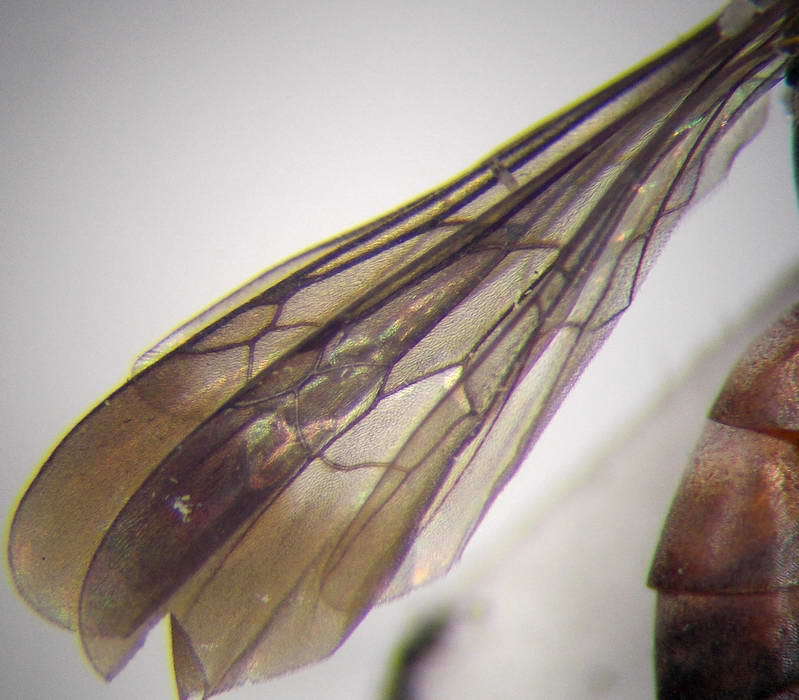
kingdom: Animalia
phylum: Arthropoda
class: Insecta
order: Hymenoptera
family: Pompilidae
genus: Tachyagetes
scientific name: Tachyagetes filicornis
